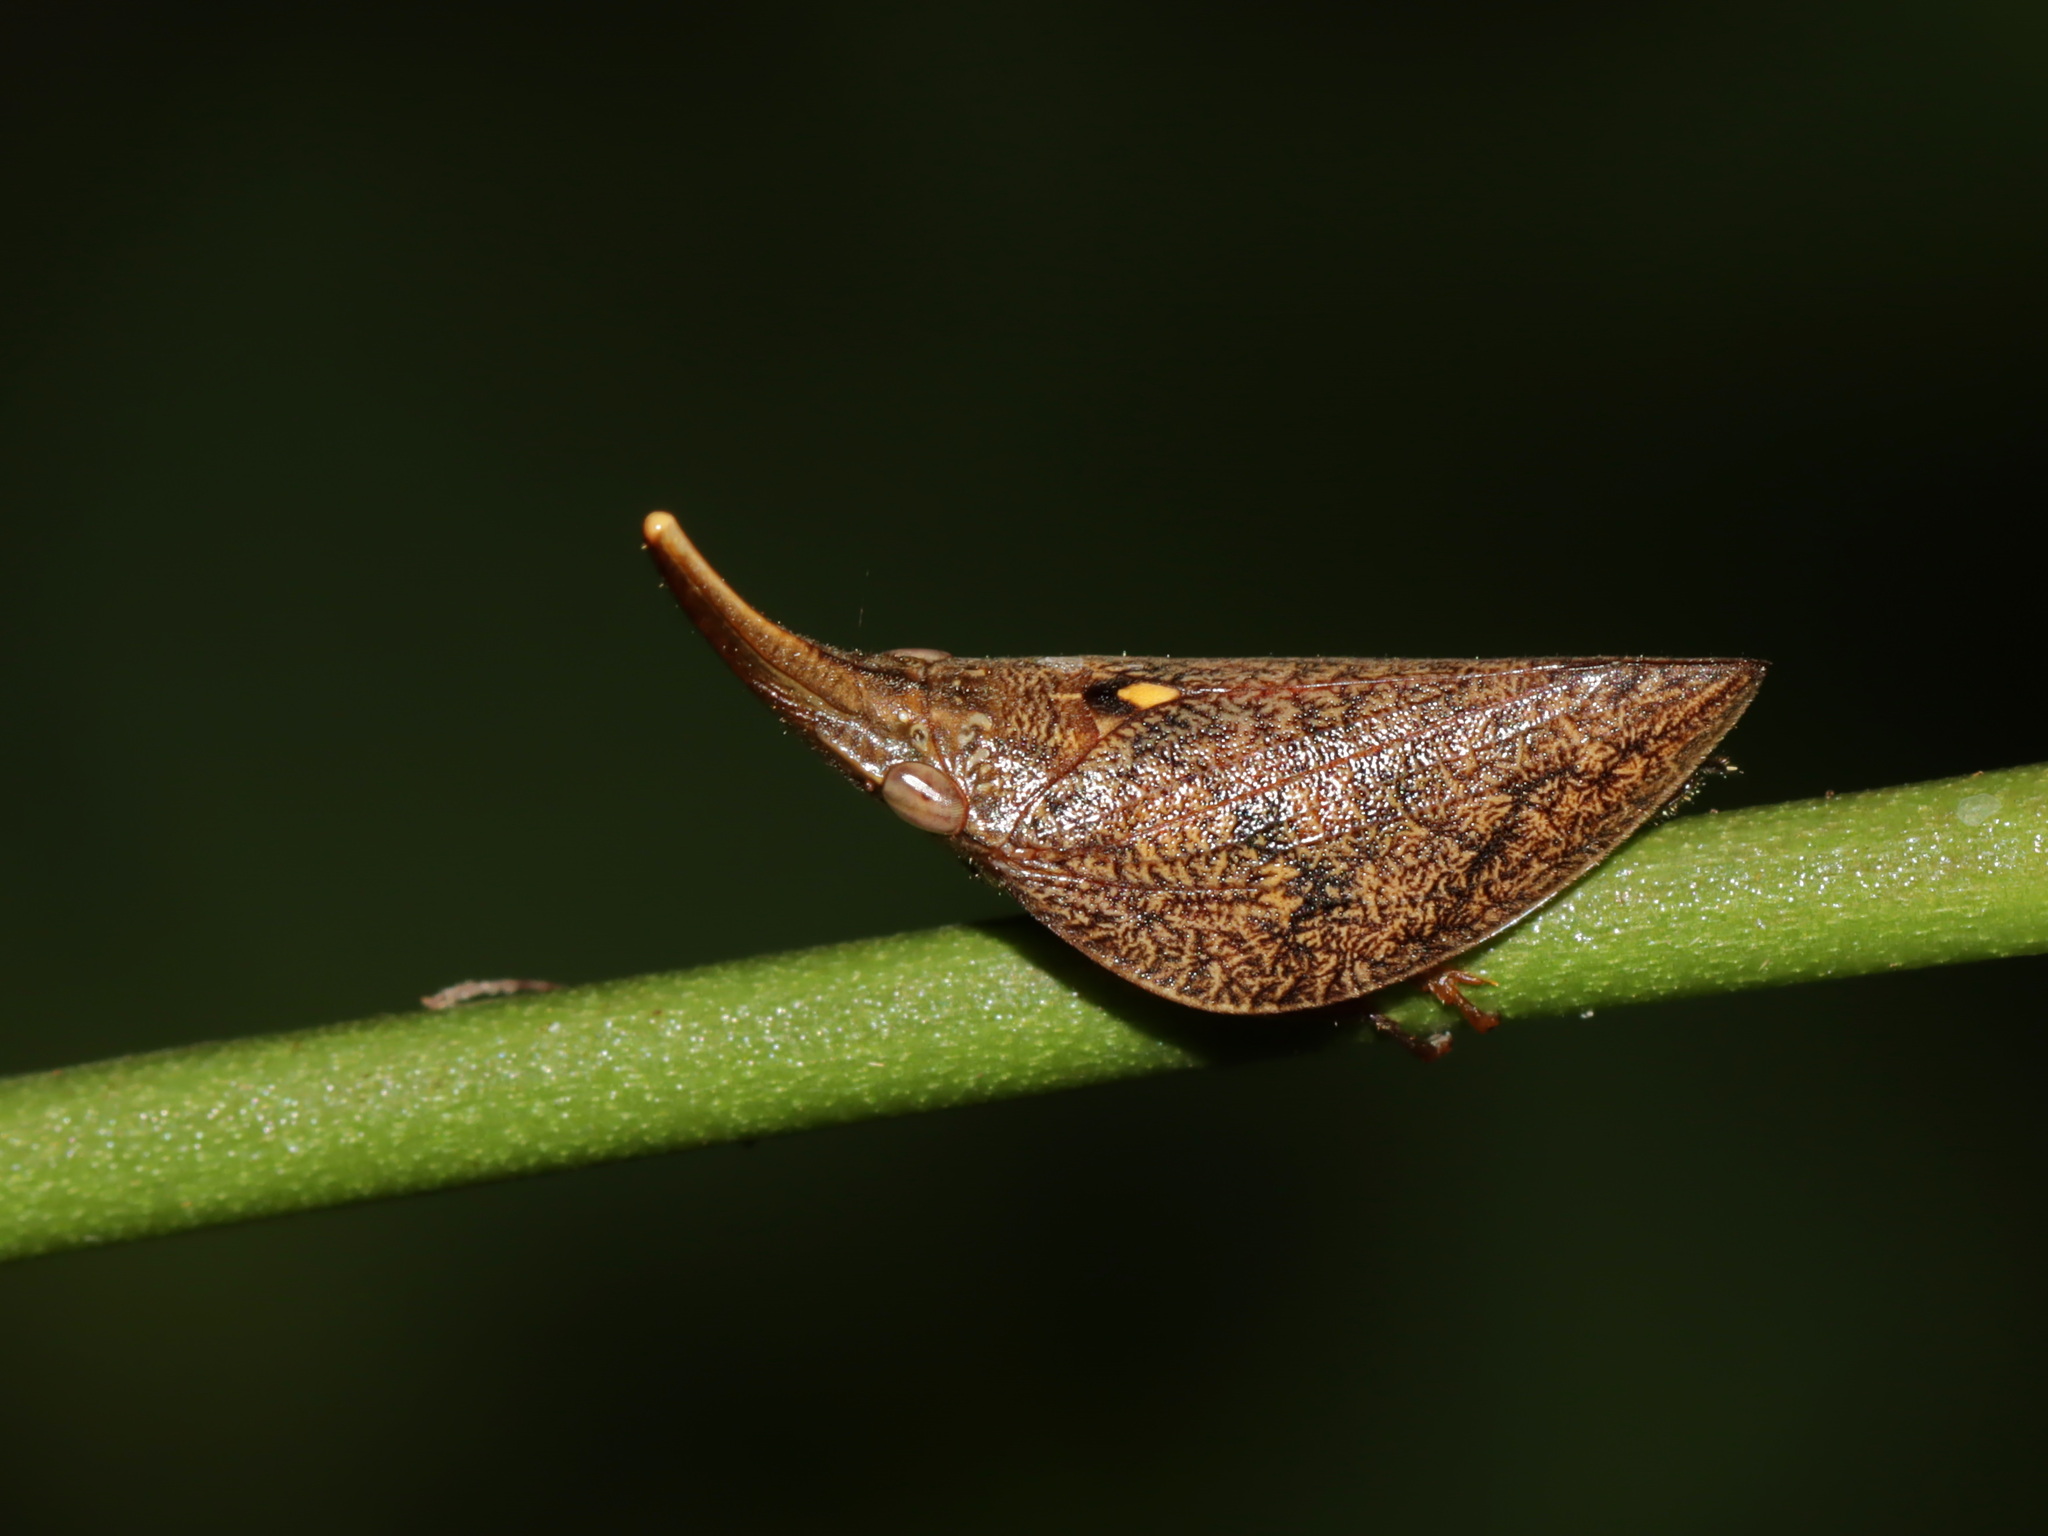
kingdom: Animalia
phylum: Arthropoda
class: Insecta
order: Hemiptera
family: Aphrophoridae
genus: Philagra
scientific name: Philagra fusiformis
